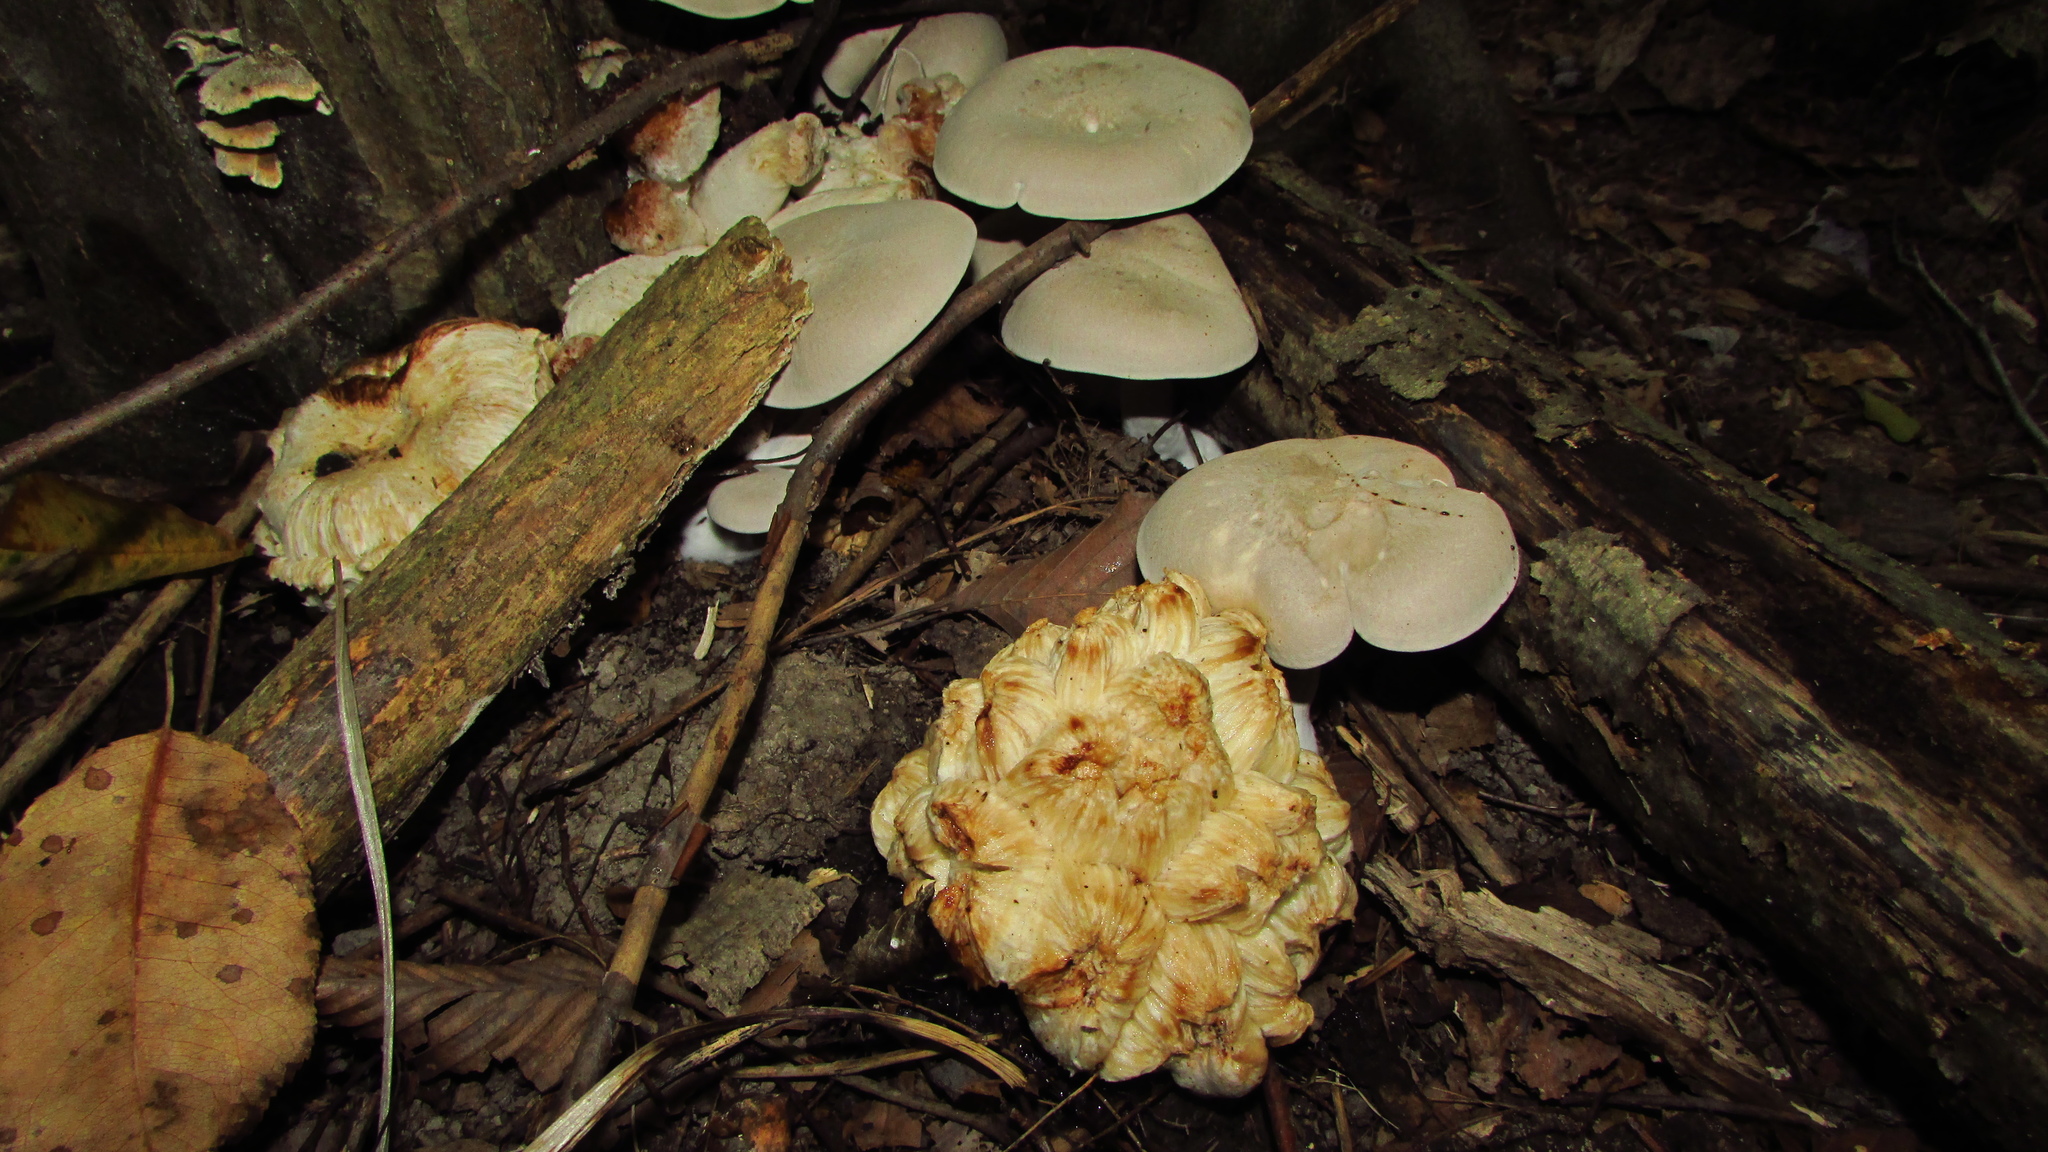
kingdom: Fungi
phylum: Basidiomycota
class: Agaricomycetes
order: Agaricales
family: Entolomataceae
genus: Entoloma
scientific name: Entoloma abortivum
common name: Aborted entoloma
